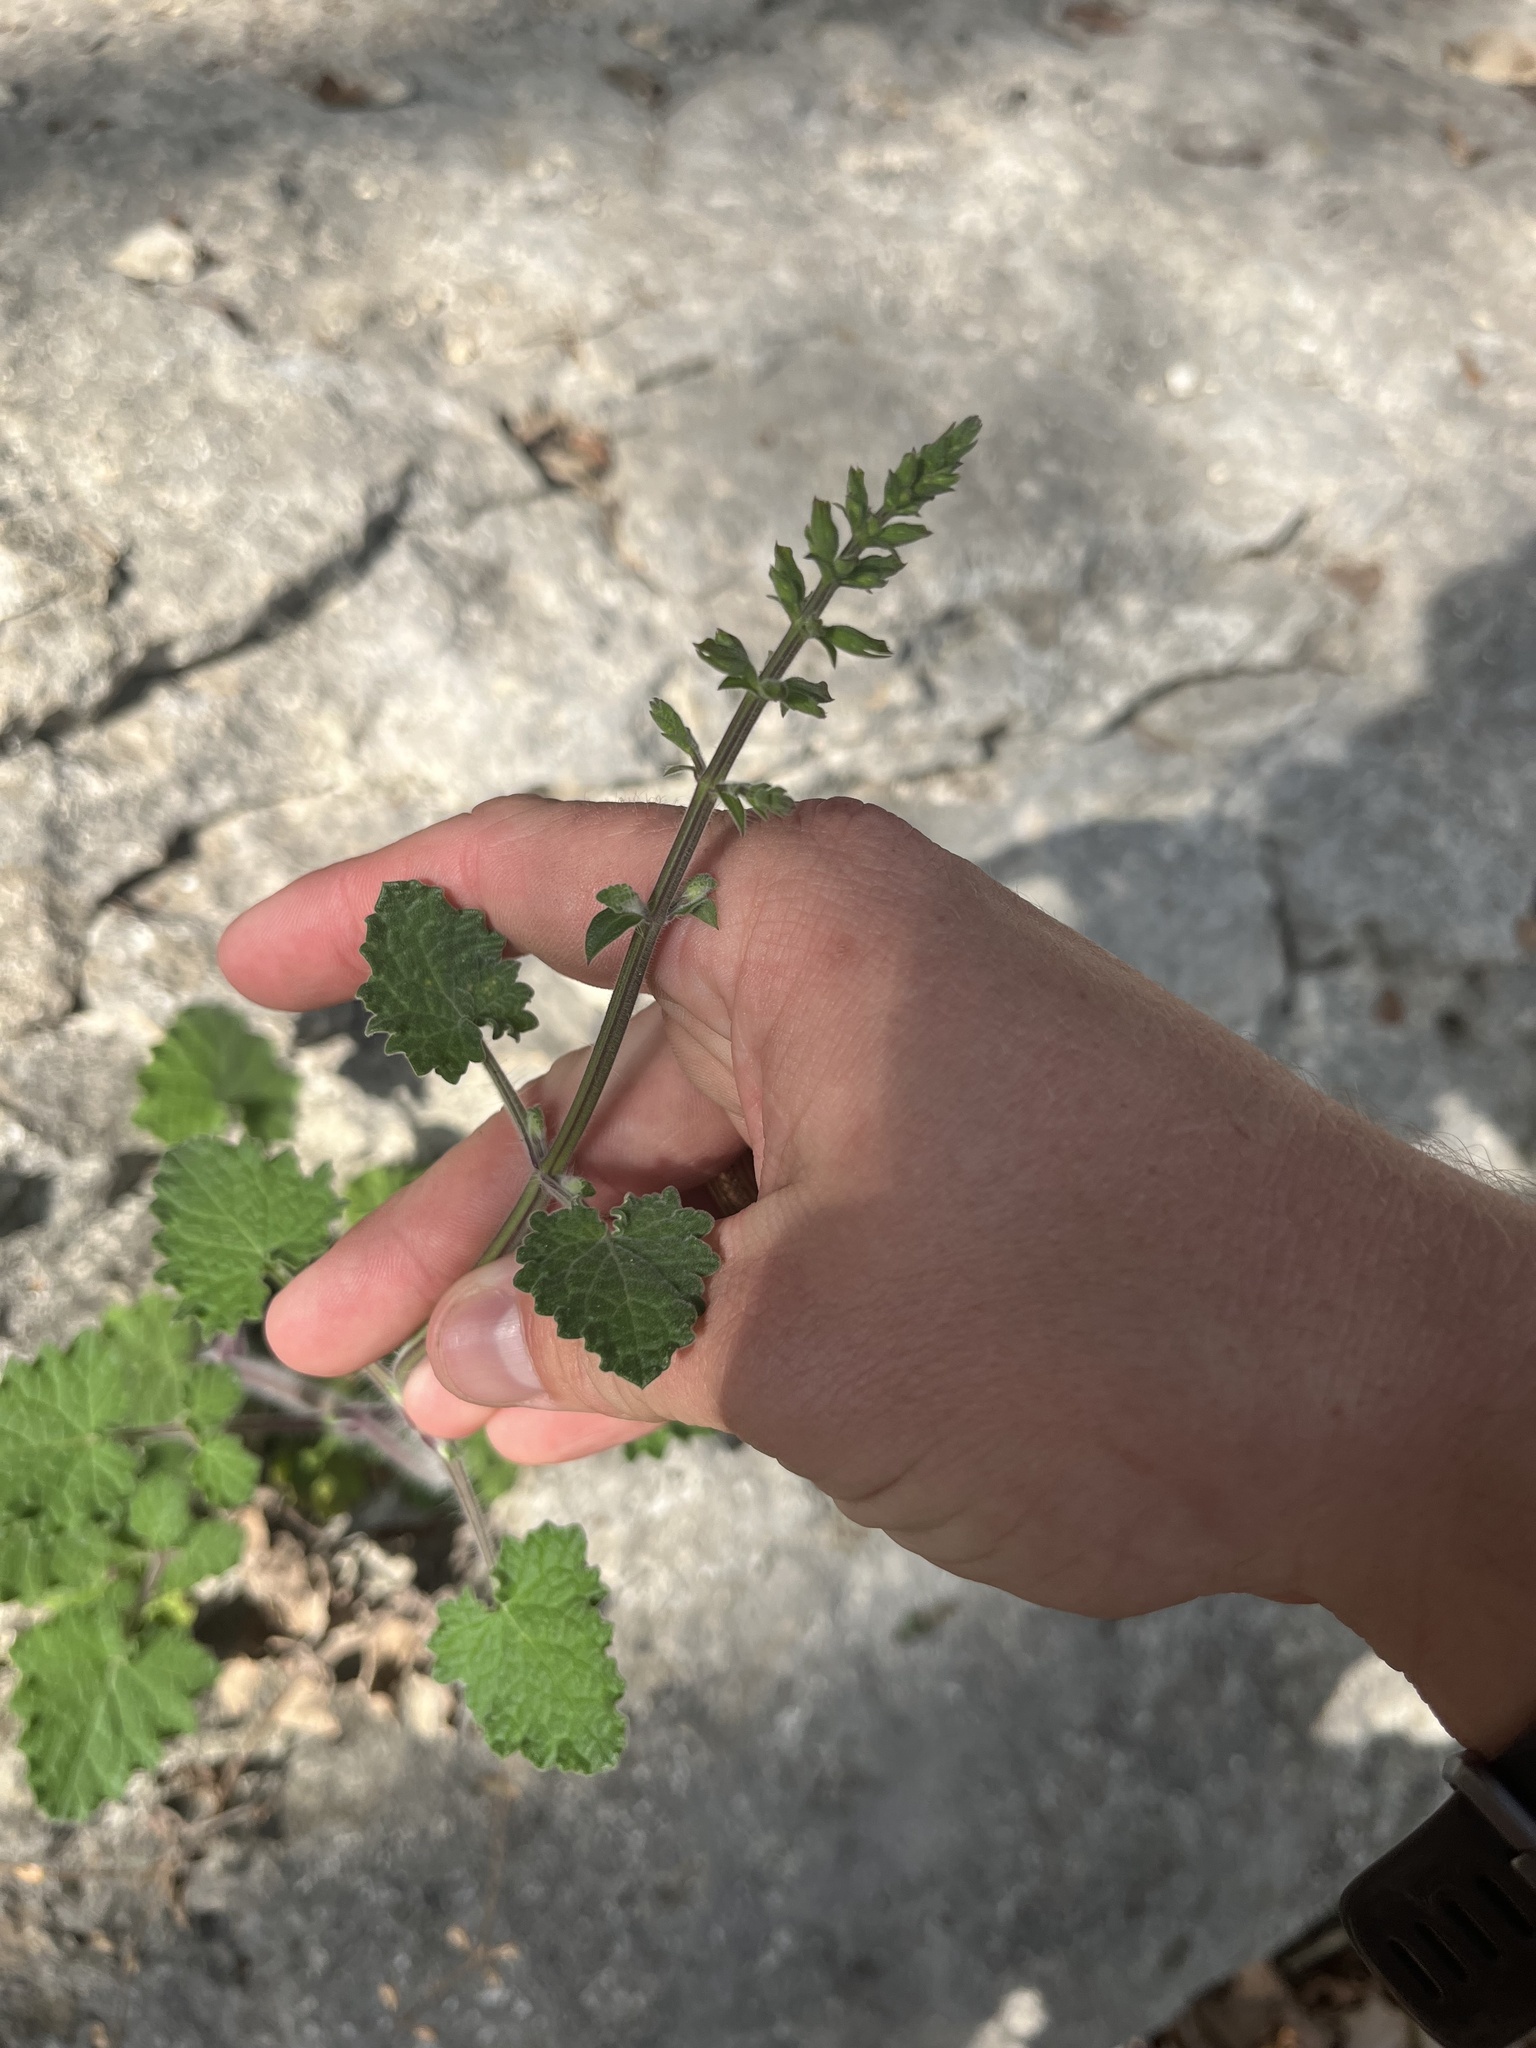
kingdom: Plantae
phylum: Tracheophyta
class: Magnoliopsida
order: Lamiales
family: Lamiaceae
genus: Salvia
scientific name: Salvia roemeriana
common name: Cedar sage
